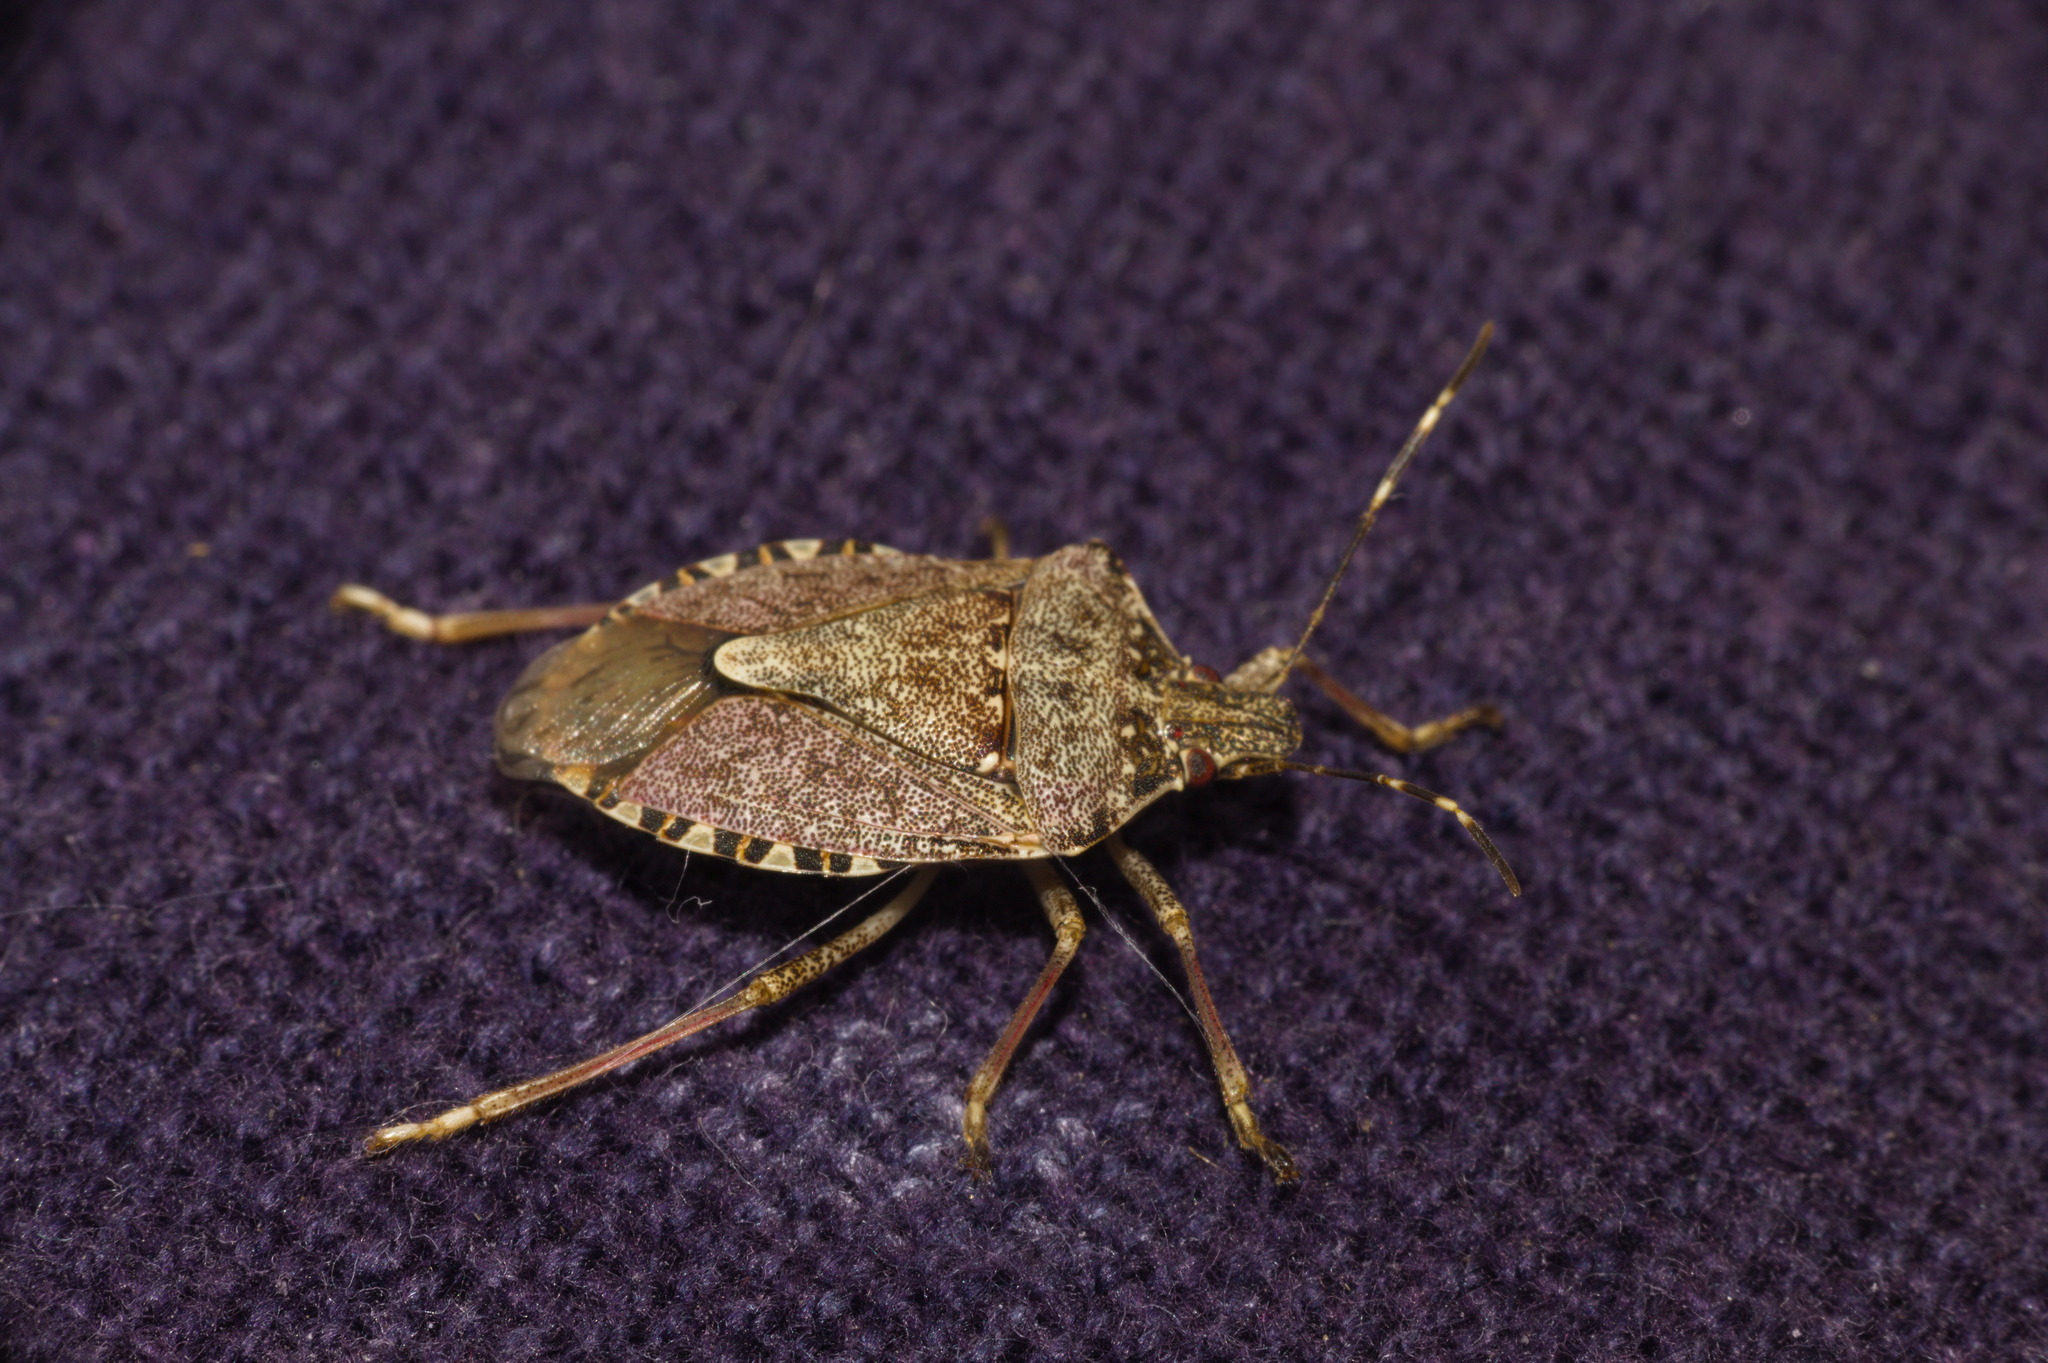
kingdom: Animalia
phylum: Arthropoda
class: Insecta
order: Hemiptera
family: Pentatomidae
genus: Halyomorpha
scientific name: Halyomorpha halys
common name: Brown marmorated stink bug
